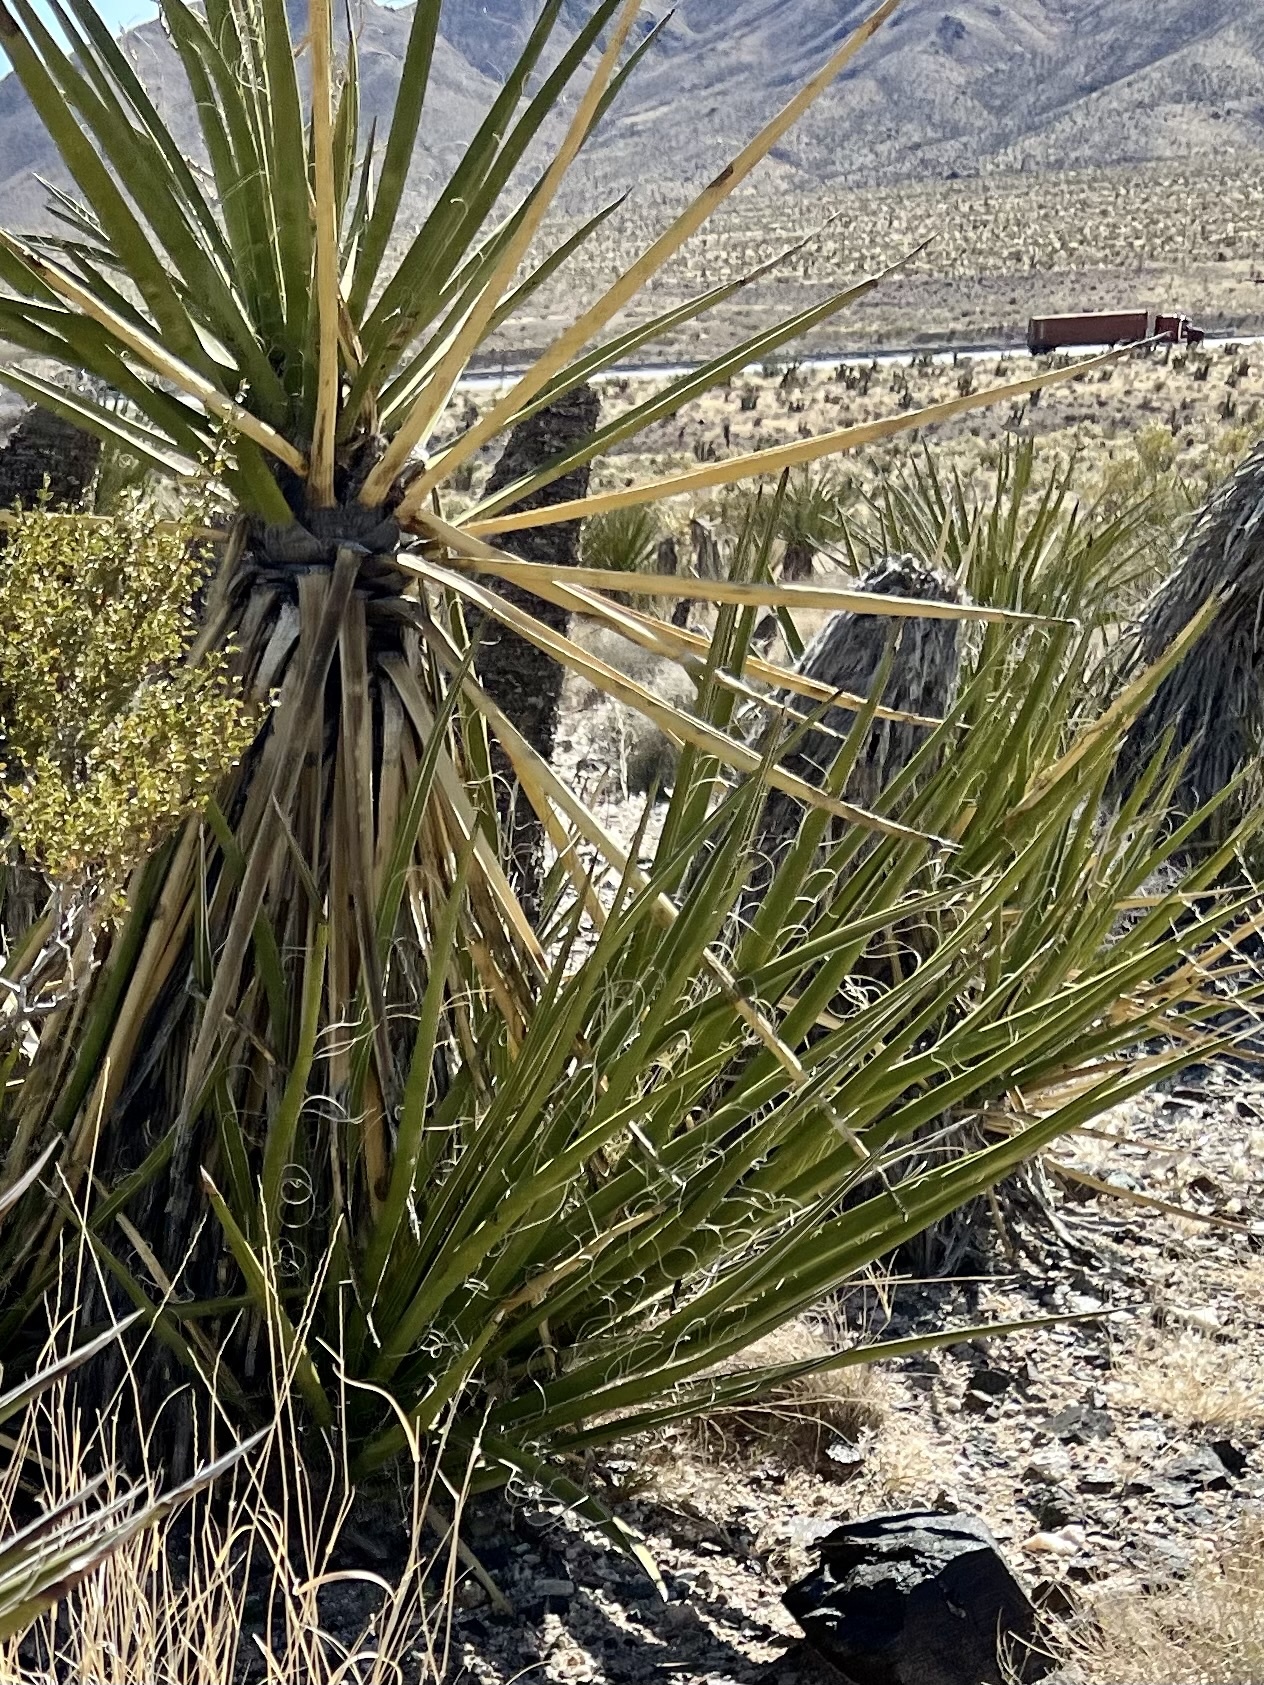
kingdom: Plantae
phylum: Tracheophyta
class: Liliopsida
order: Asparagales
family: Asparagaceae
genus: Yucca
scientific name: Yucca schidigera
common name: Mojave yucca
